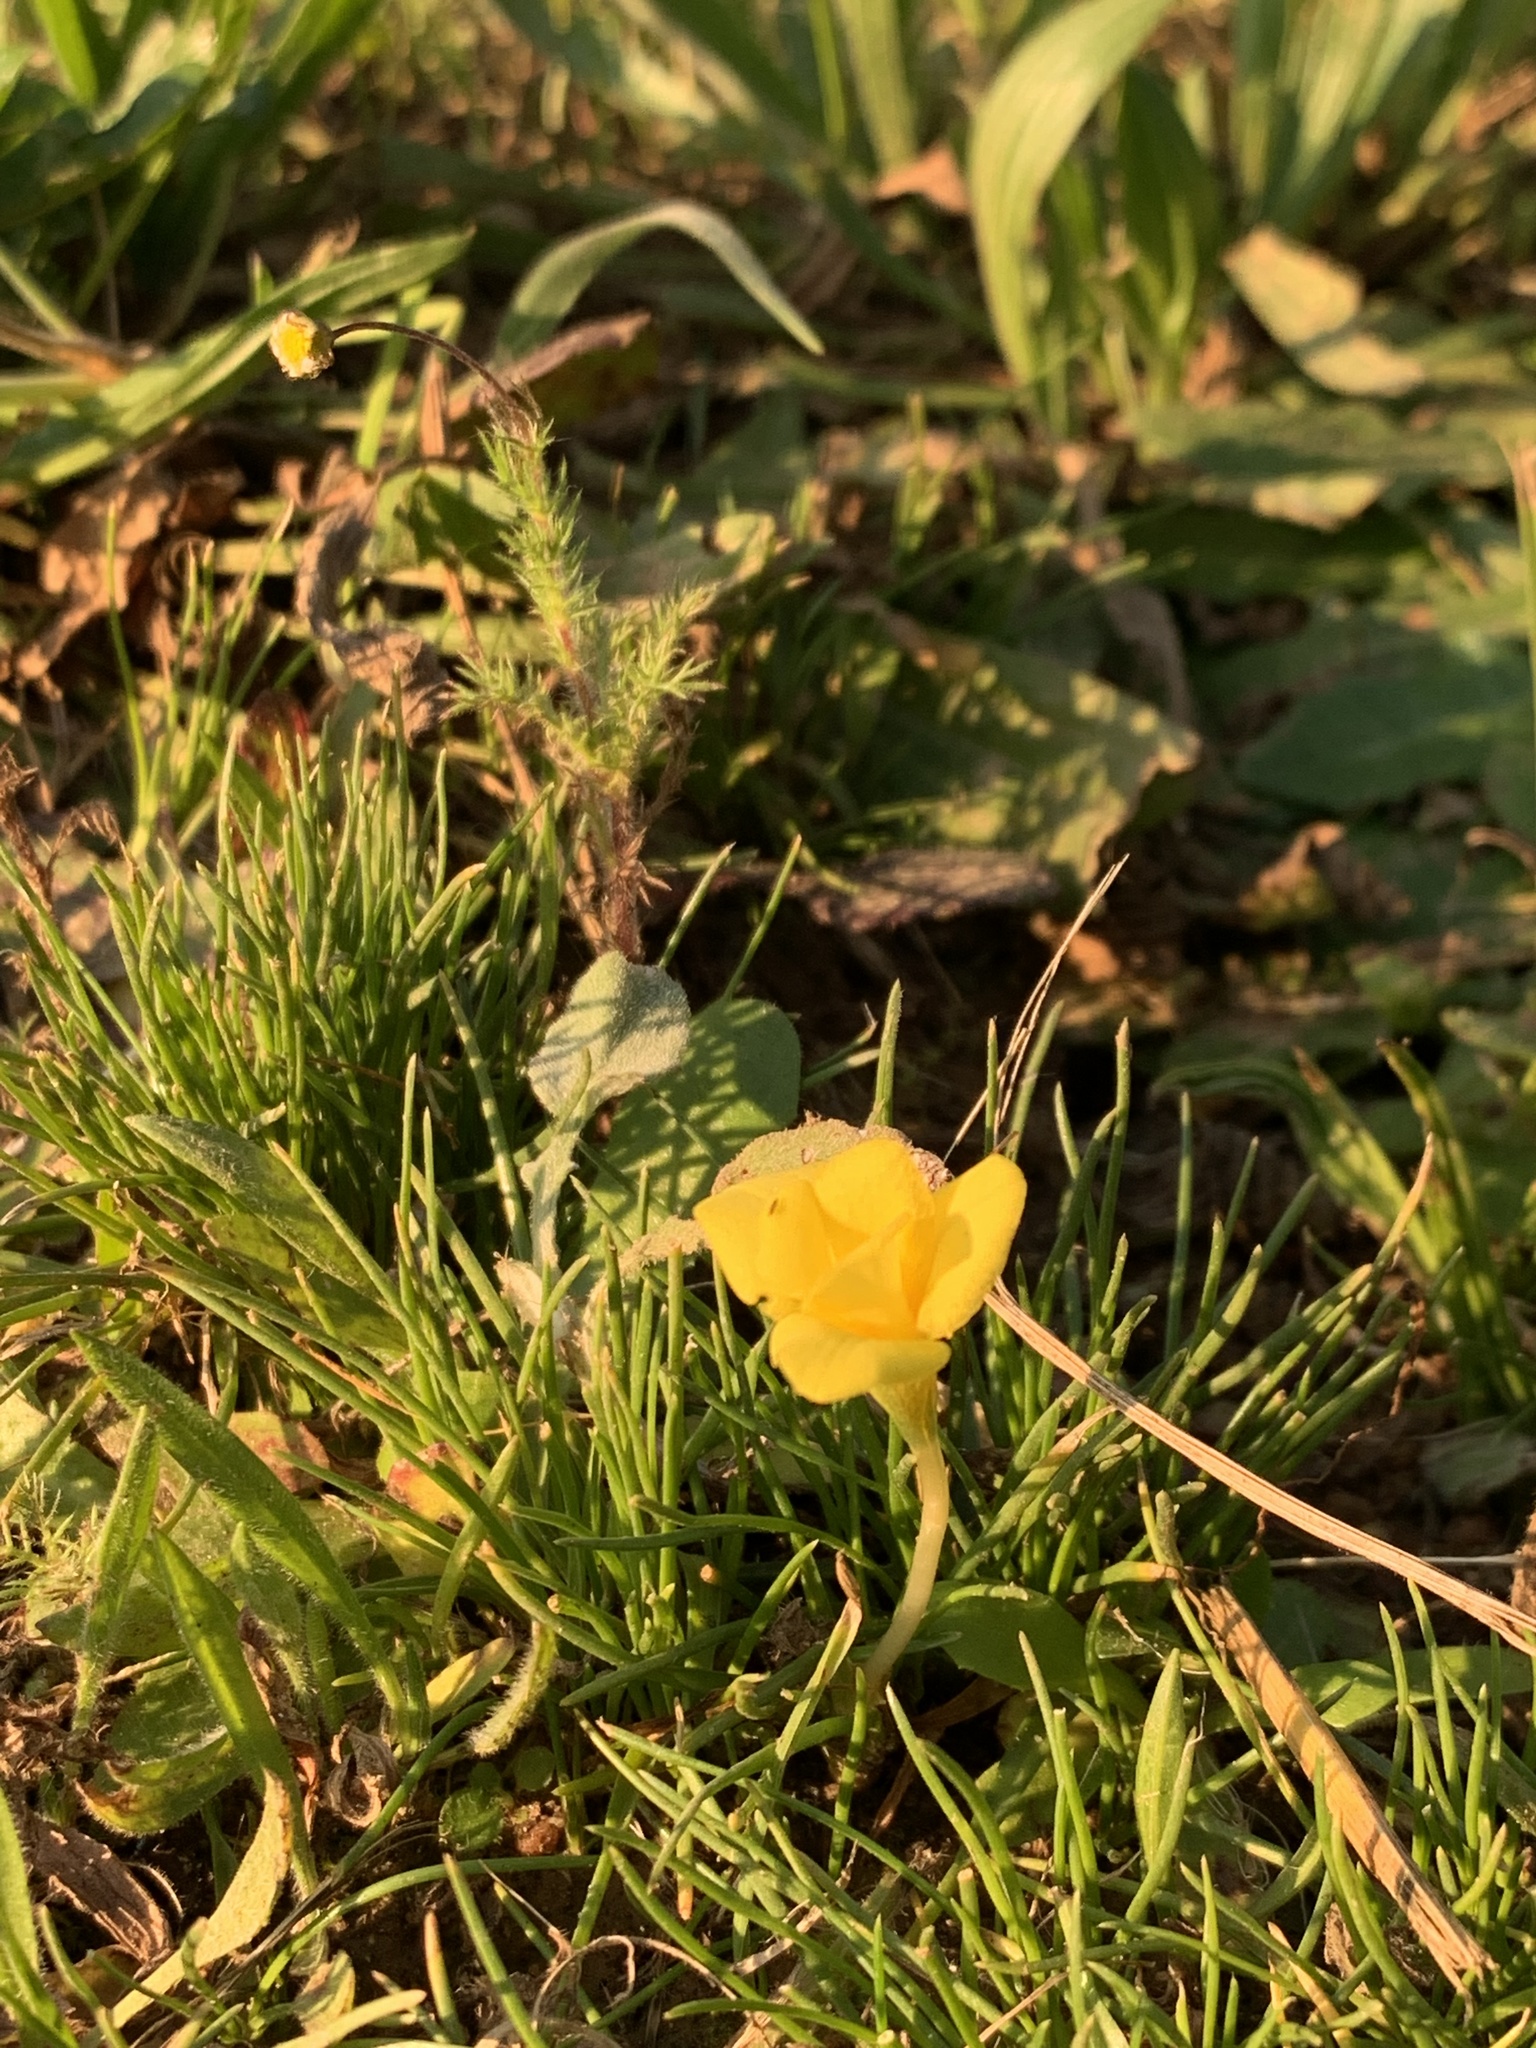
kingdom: Plantae
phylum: Tracheophyta
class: Liliopsida
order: Asparagales
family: Iridaceae
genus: Moraea
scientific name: Moraea fugacissima
